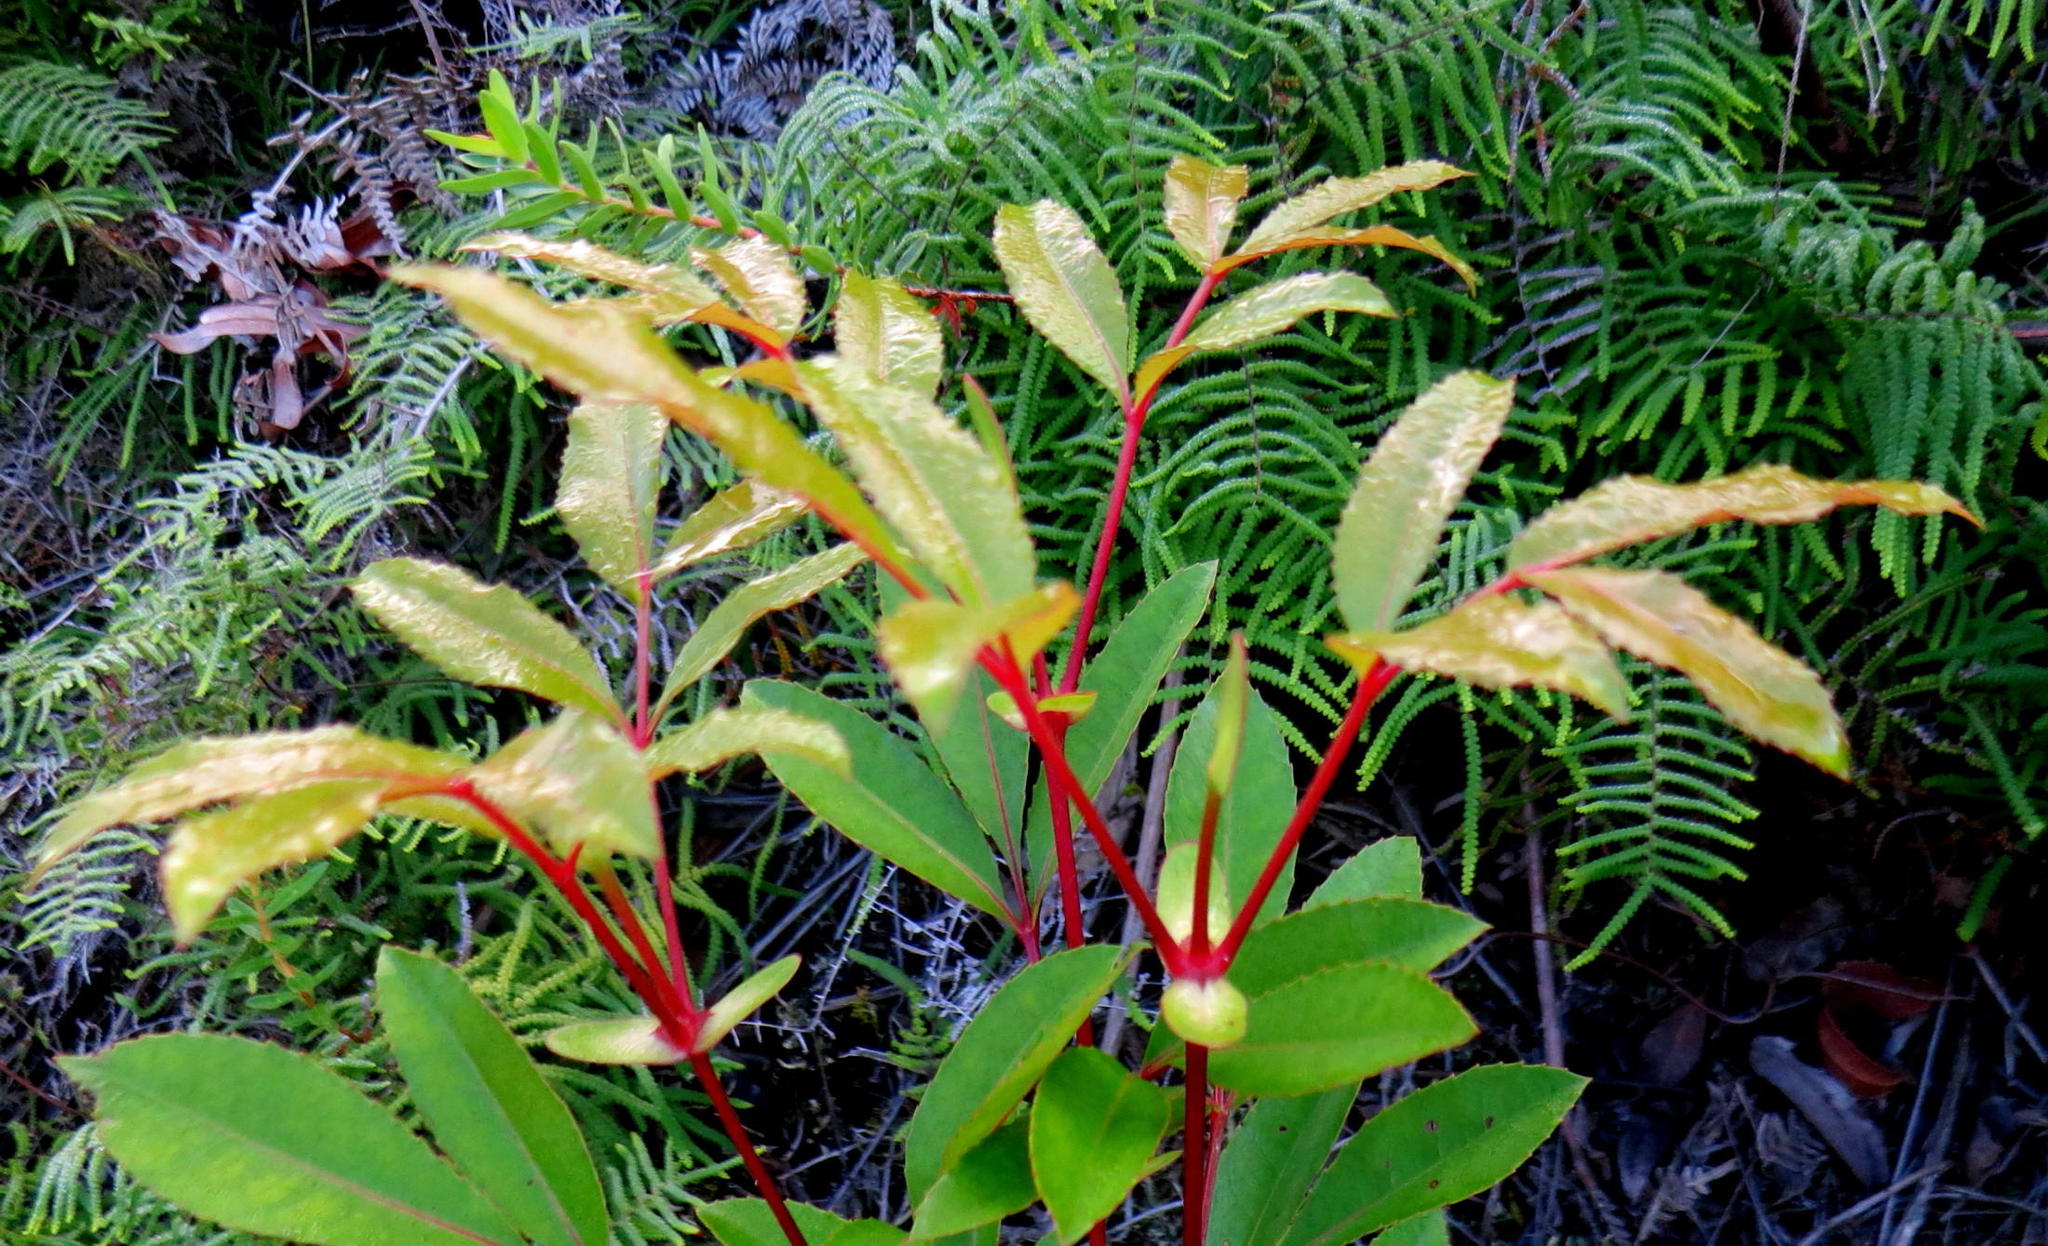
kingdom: Plantae
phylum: Tracheophyta
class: Magnoliopsida
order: Oxalidales
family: Cunoniaceae
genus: Cunonia
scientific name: Cunonia capensis
